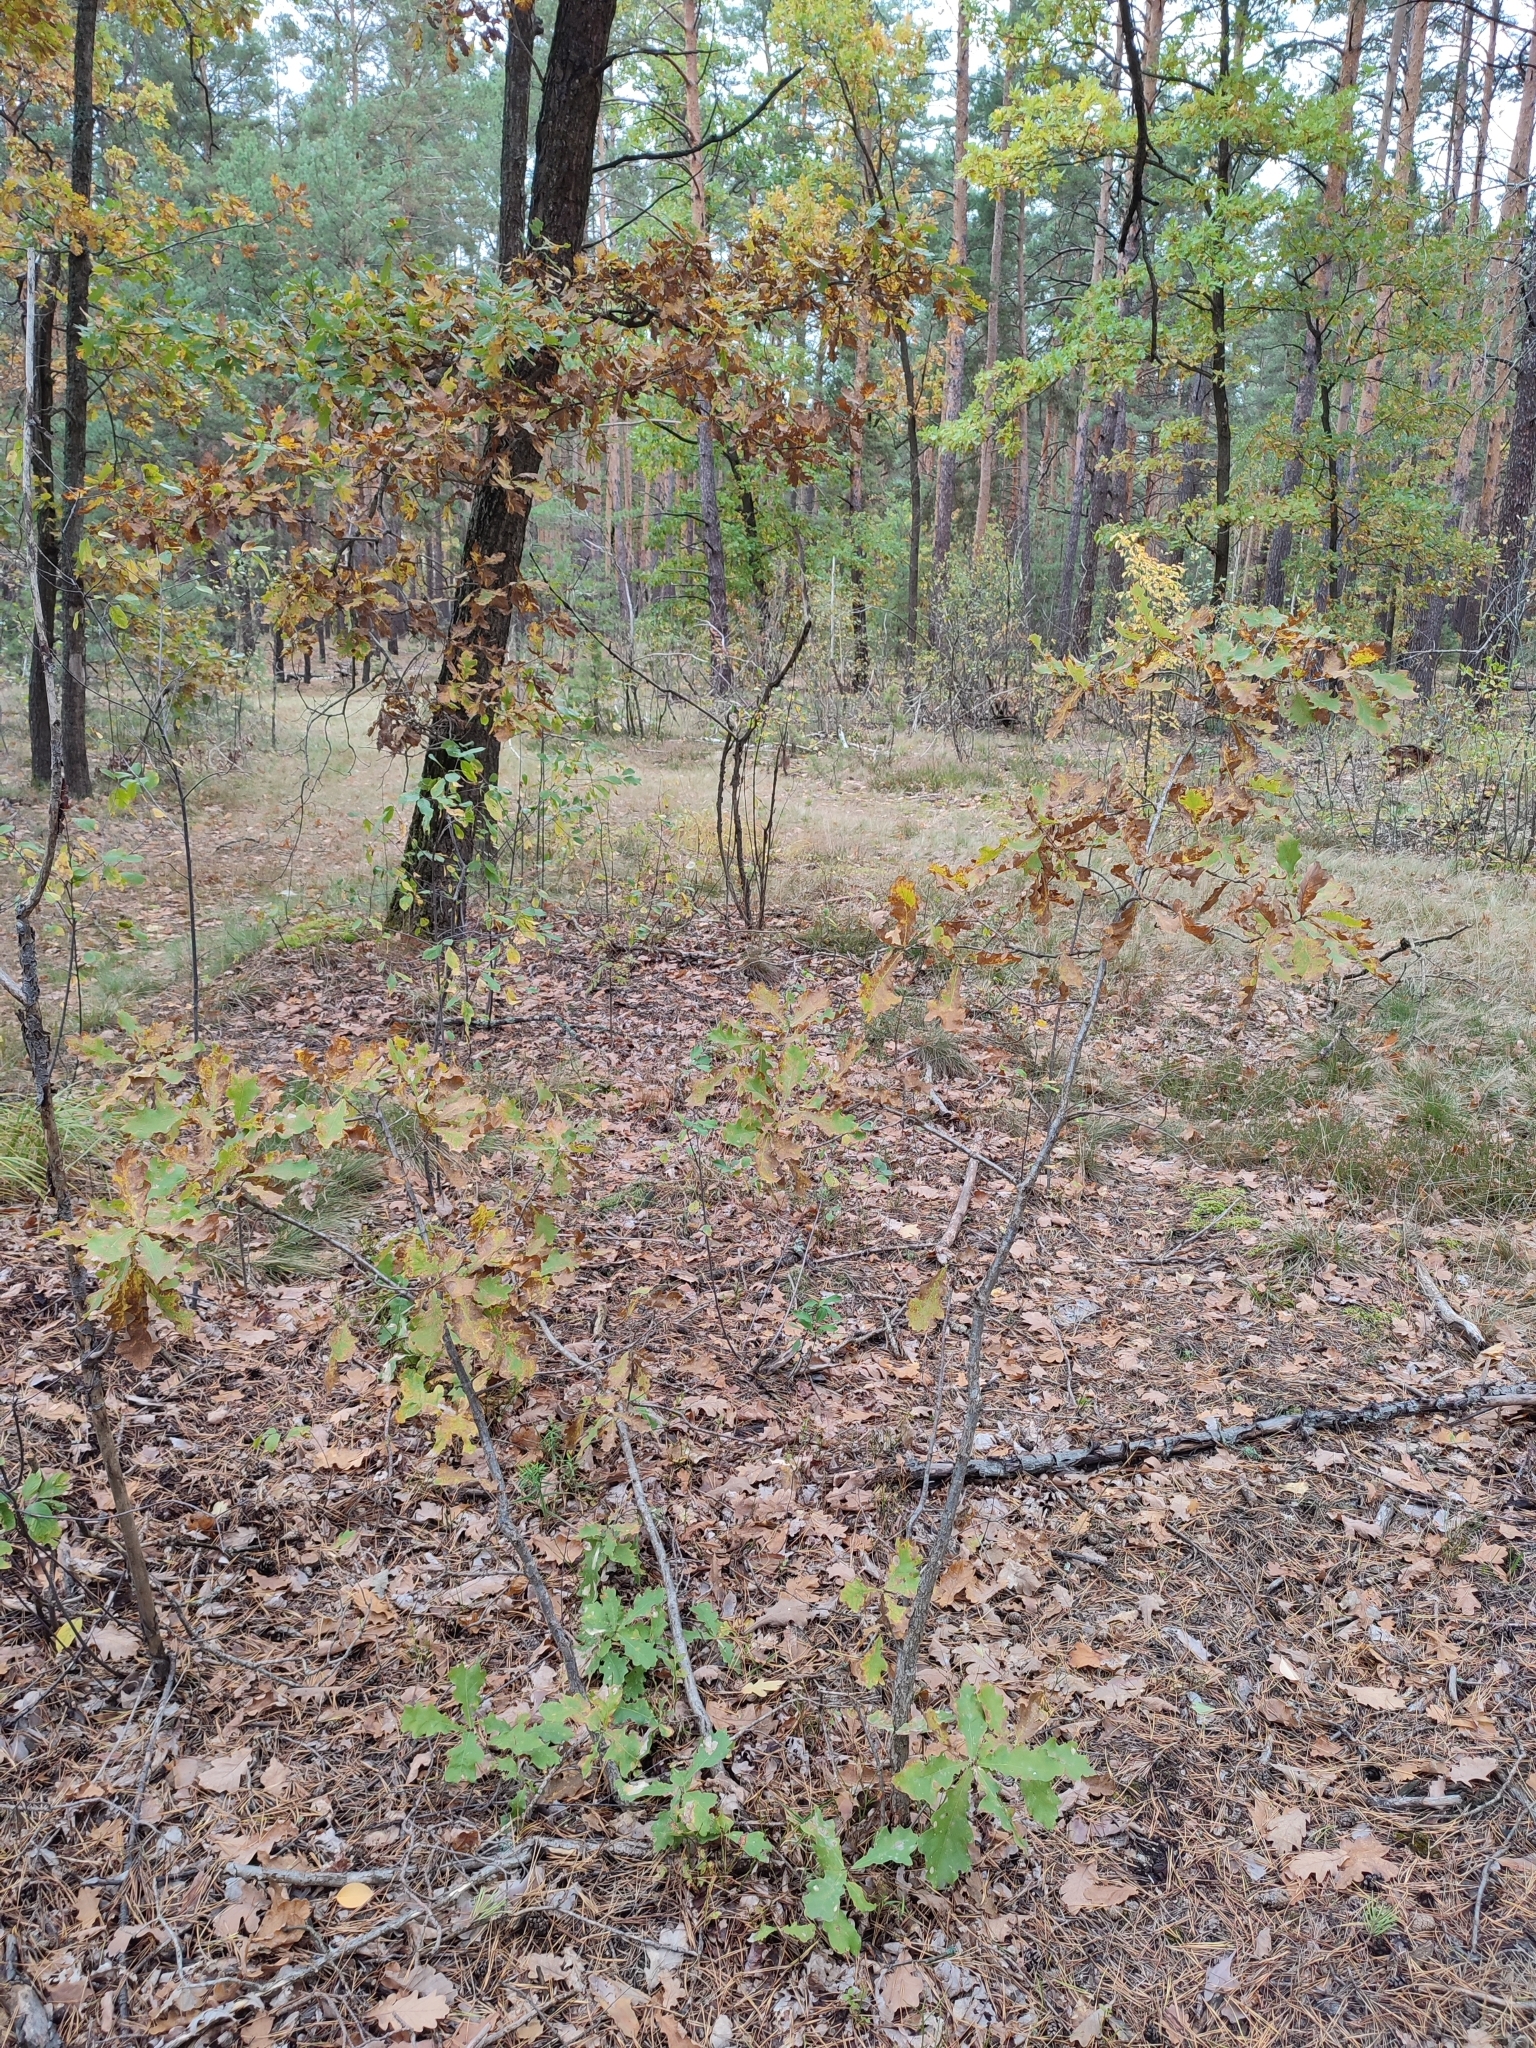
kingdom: Plantae
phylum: Tracheophyta
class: Magnoliopsida
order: Fagales
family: Fagaceae
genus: Quercus
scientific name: Quercus robur
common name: Pedunculate oak
